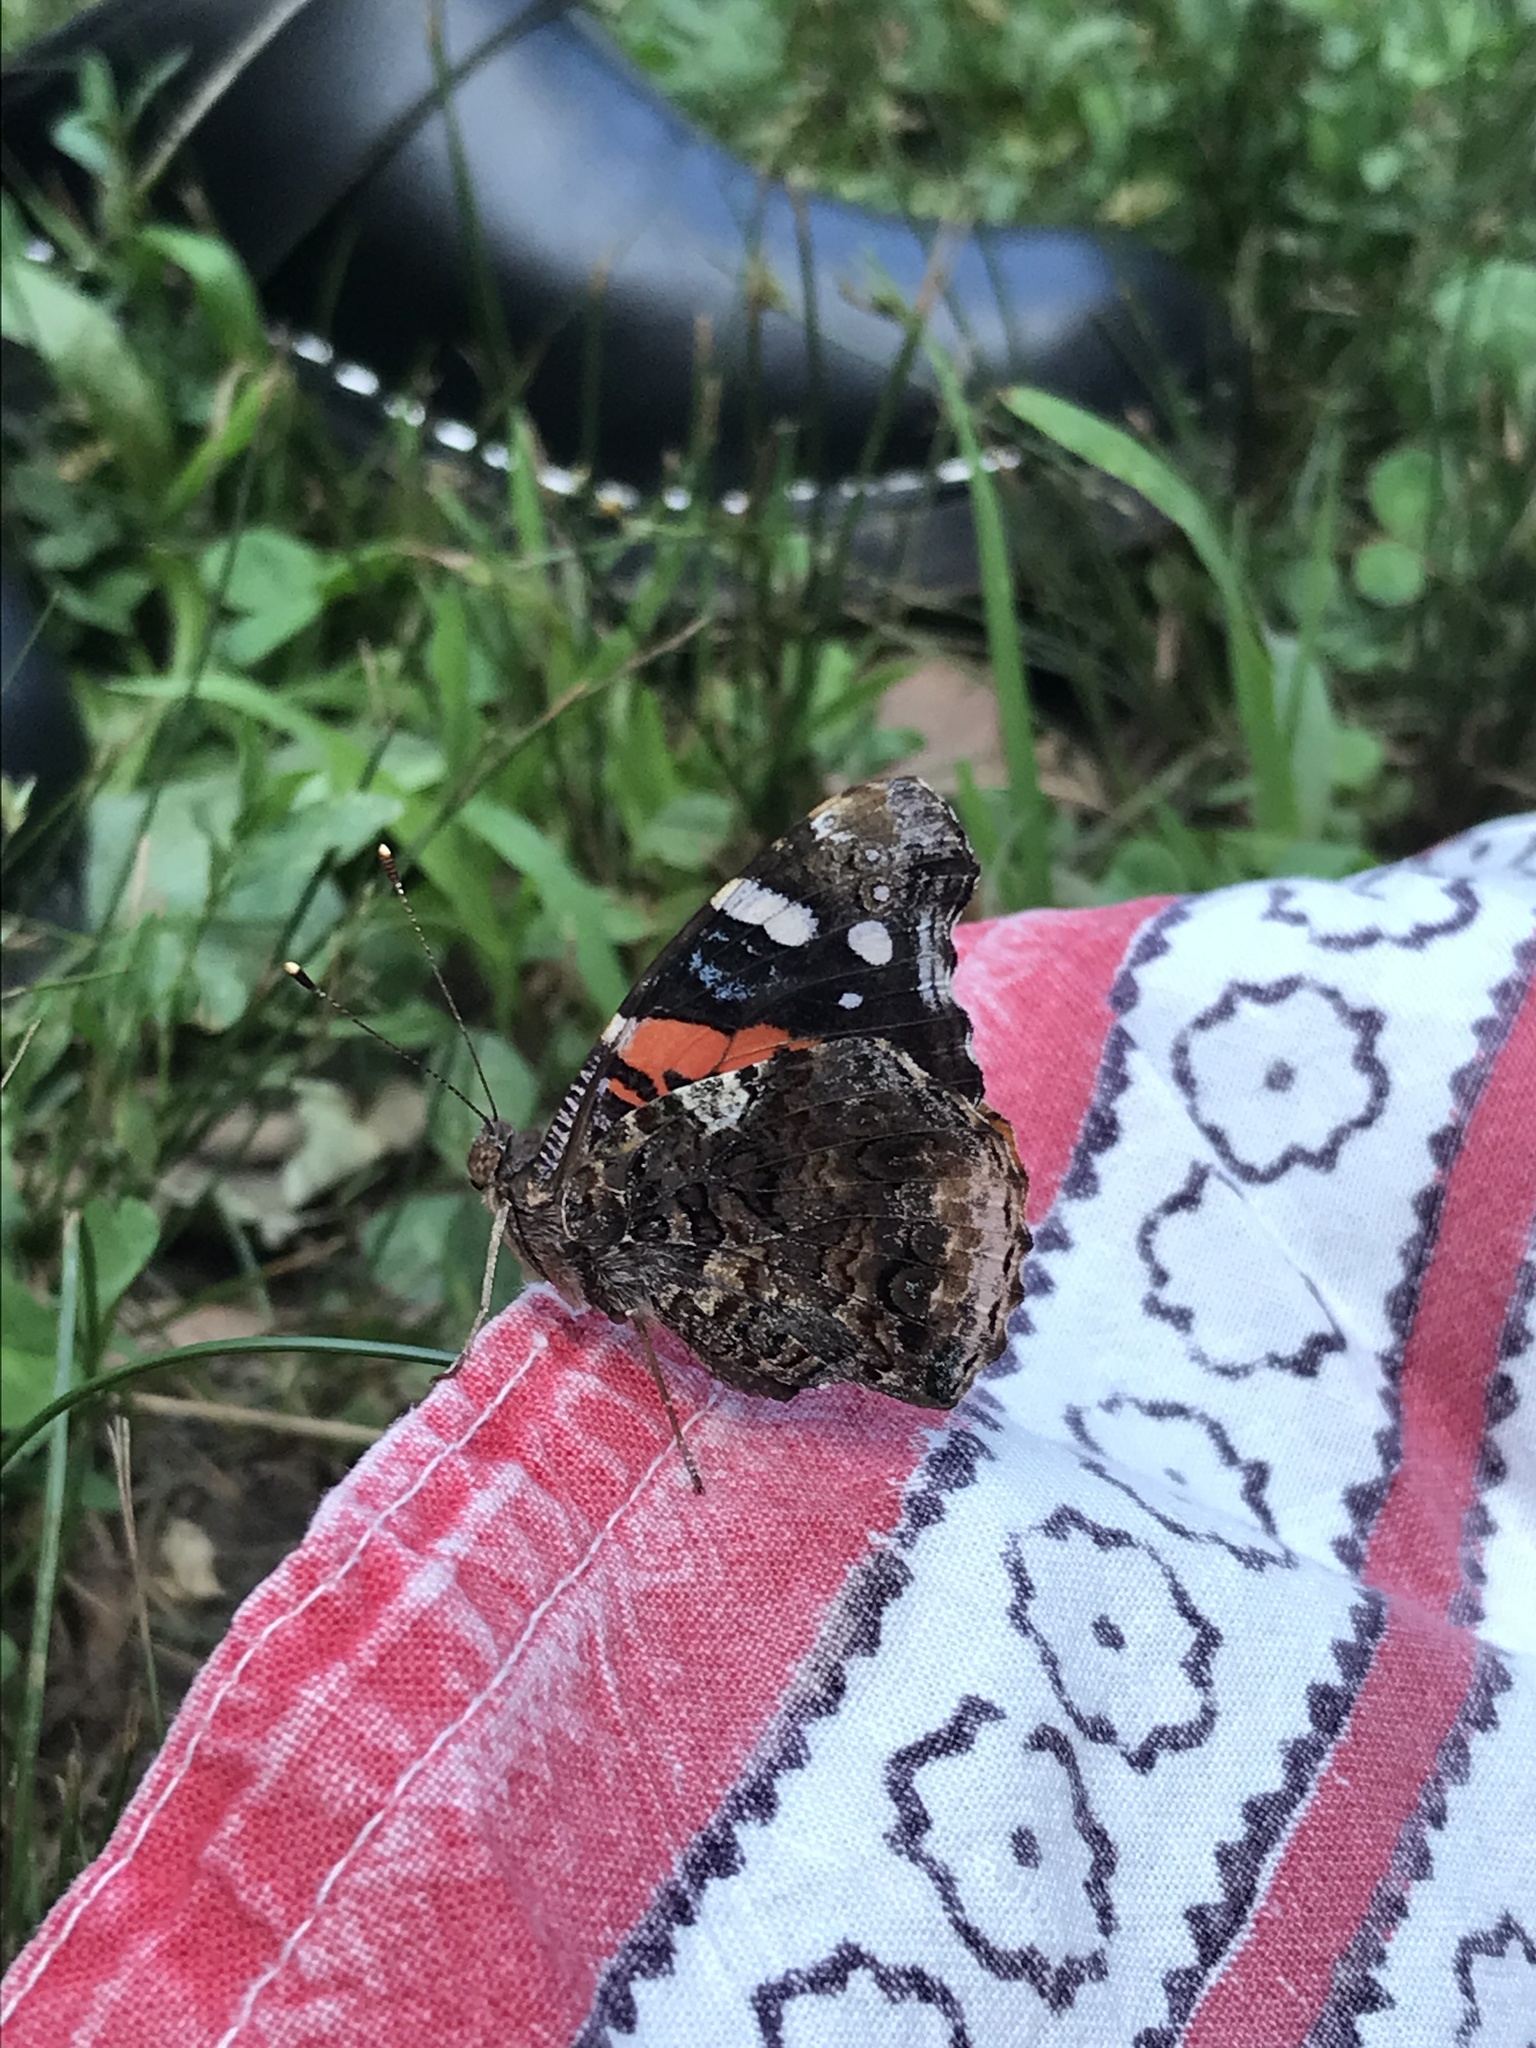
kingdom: Animalia
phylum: Arthropoda
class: Insecta
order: Lepidoptera
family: Nymphalidae
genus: Vanessa
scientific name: Vanessa atalanta
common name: Red admiral
